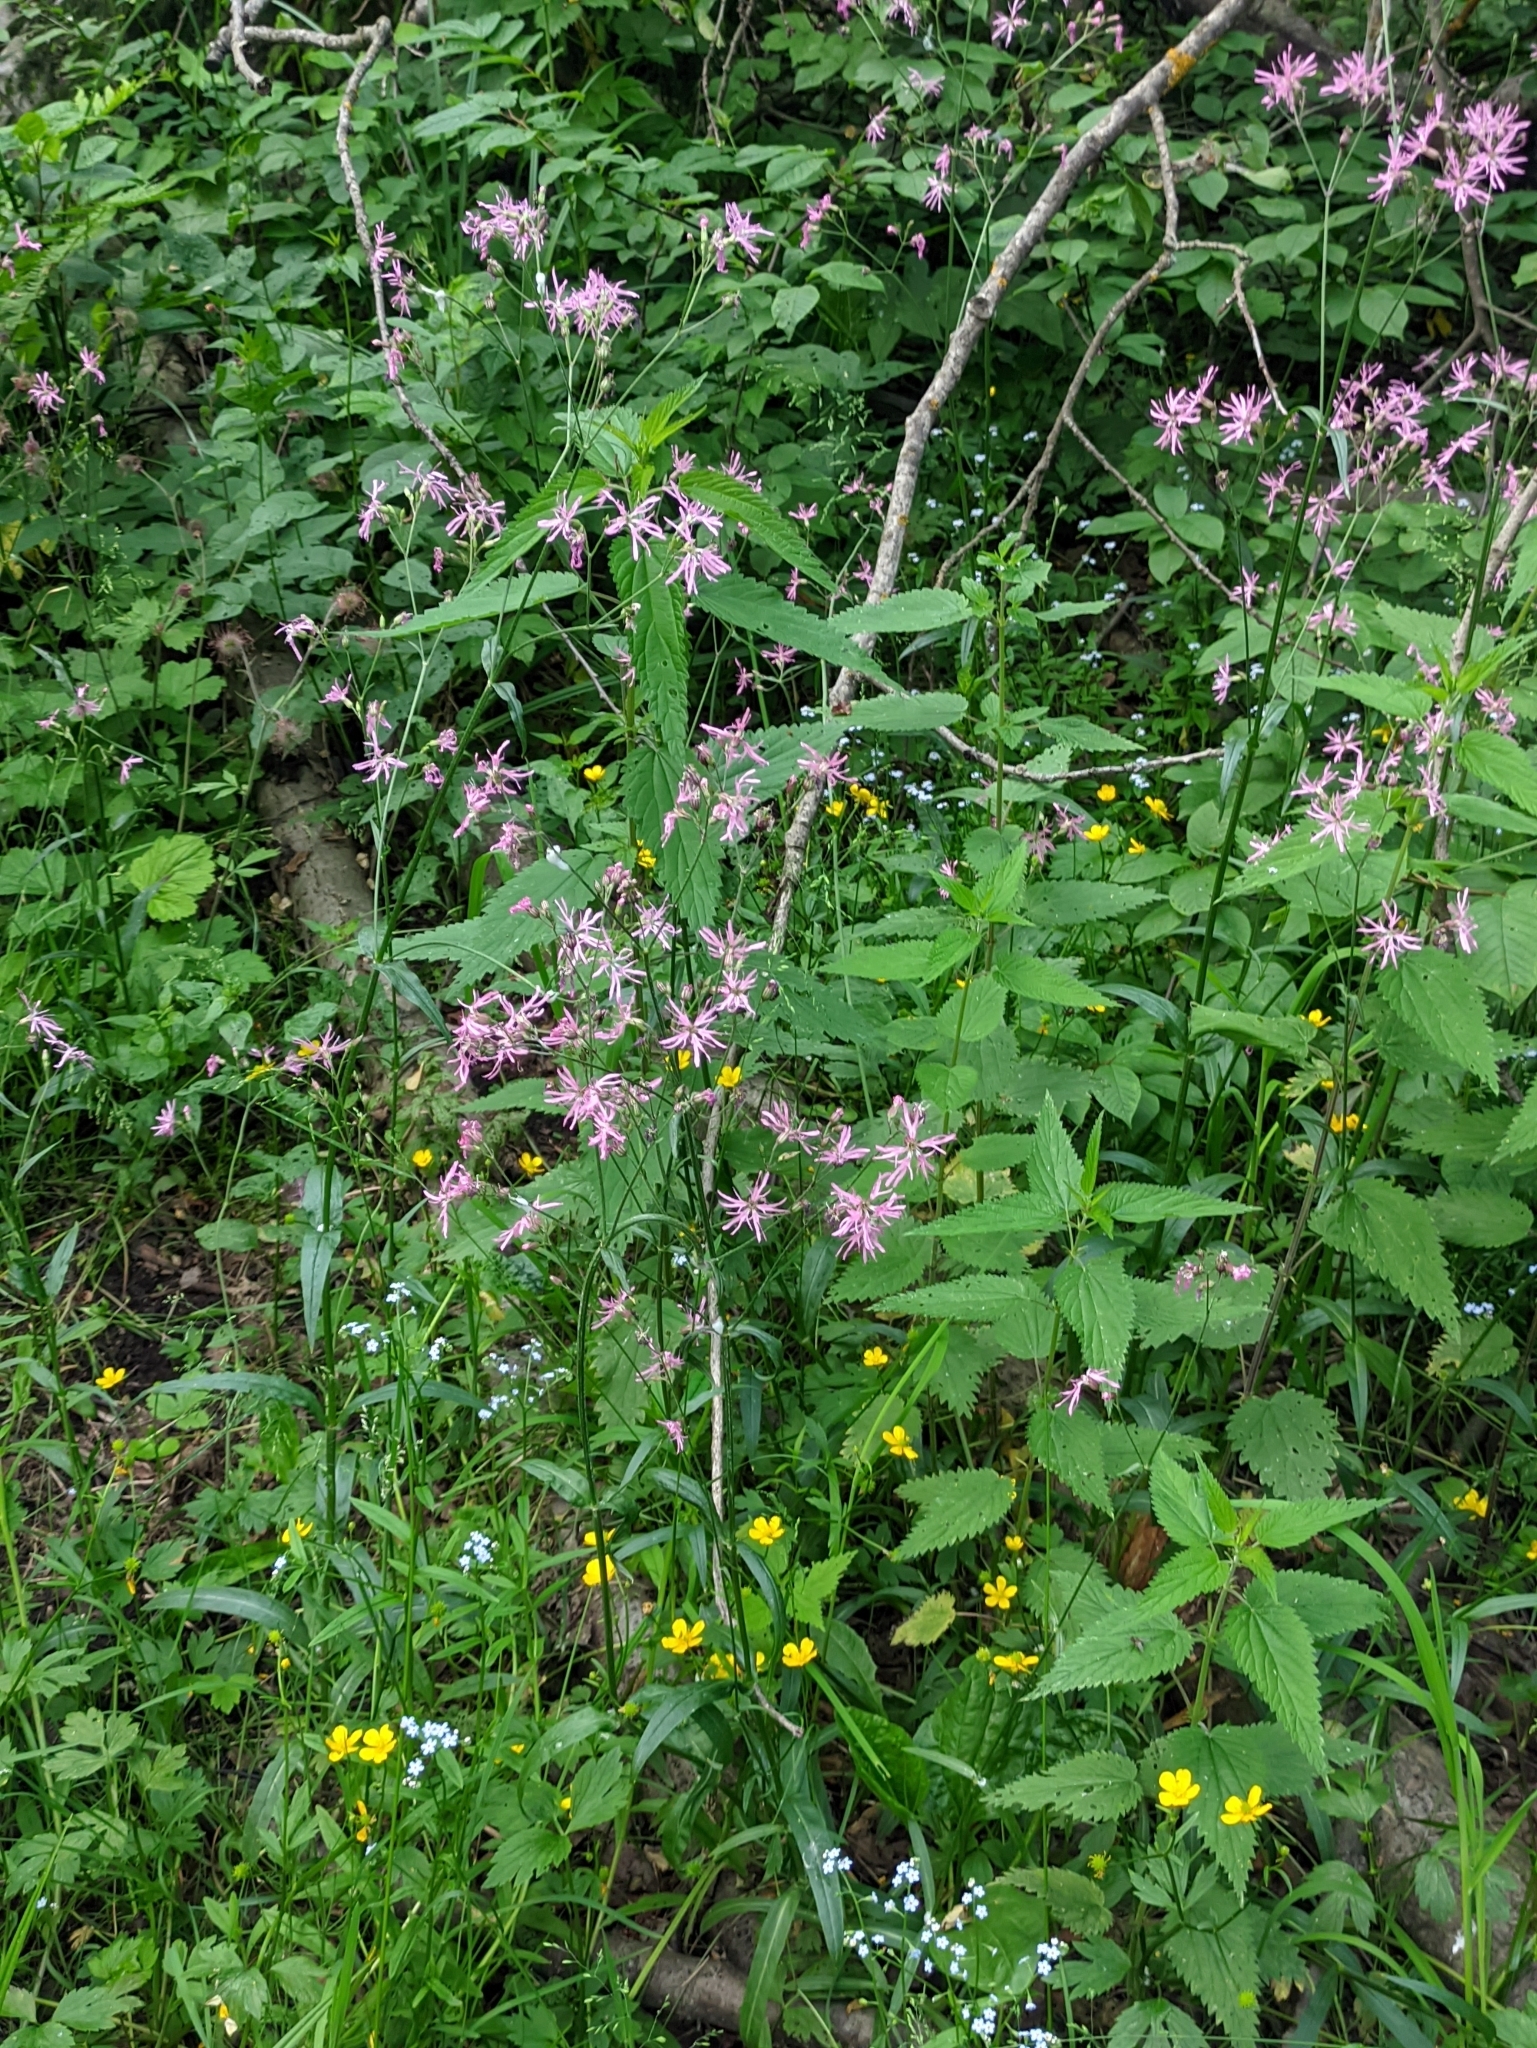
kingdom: Plantae
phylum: Tracheophyta
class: Magnoliopsida
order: Caryophyllales
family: Caryophyllaceae
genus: Silene
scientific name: Silene flos-cuculi
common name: Ragged-robin
